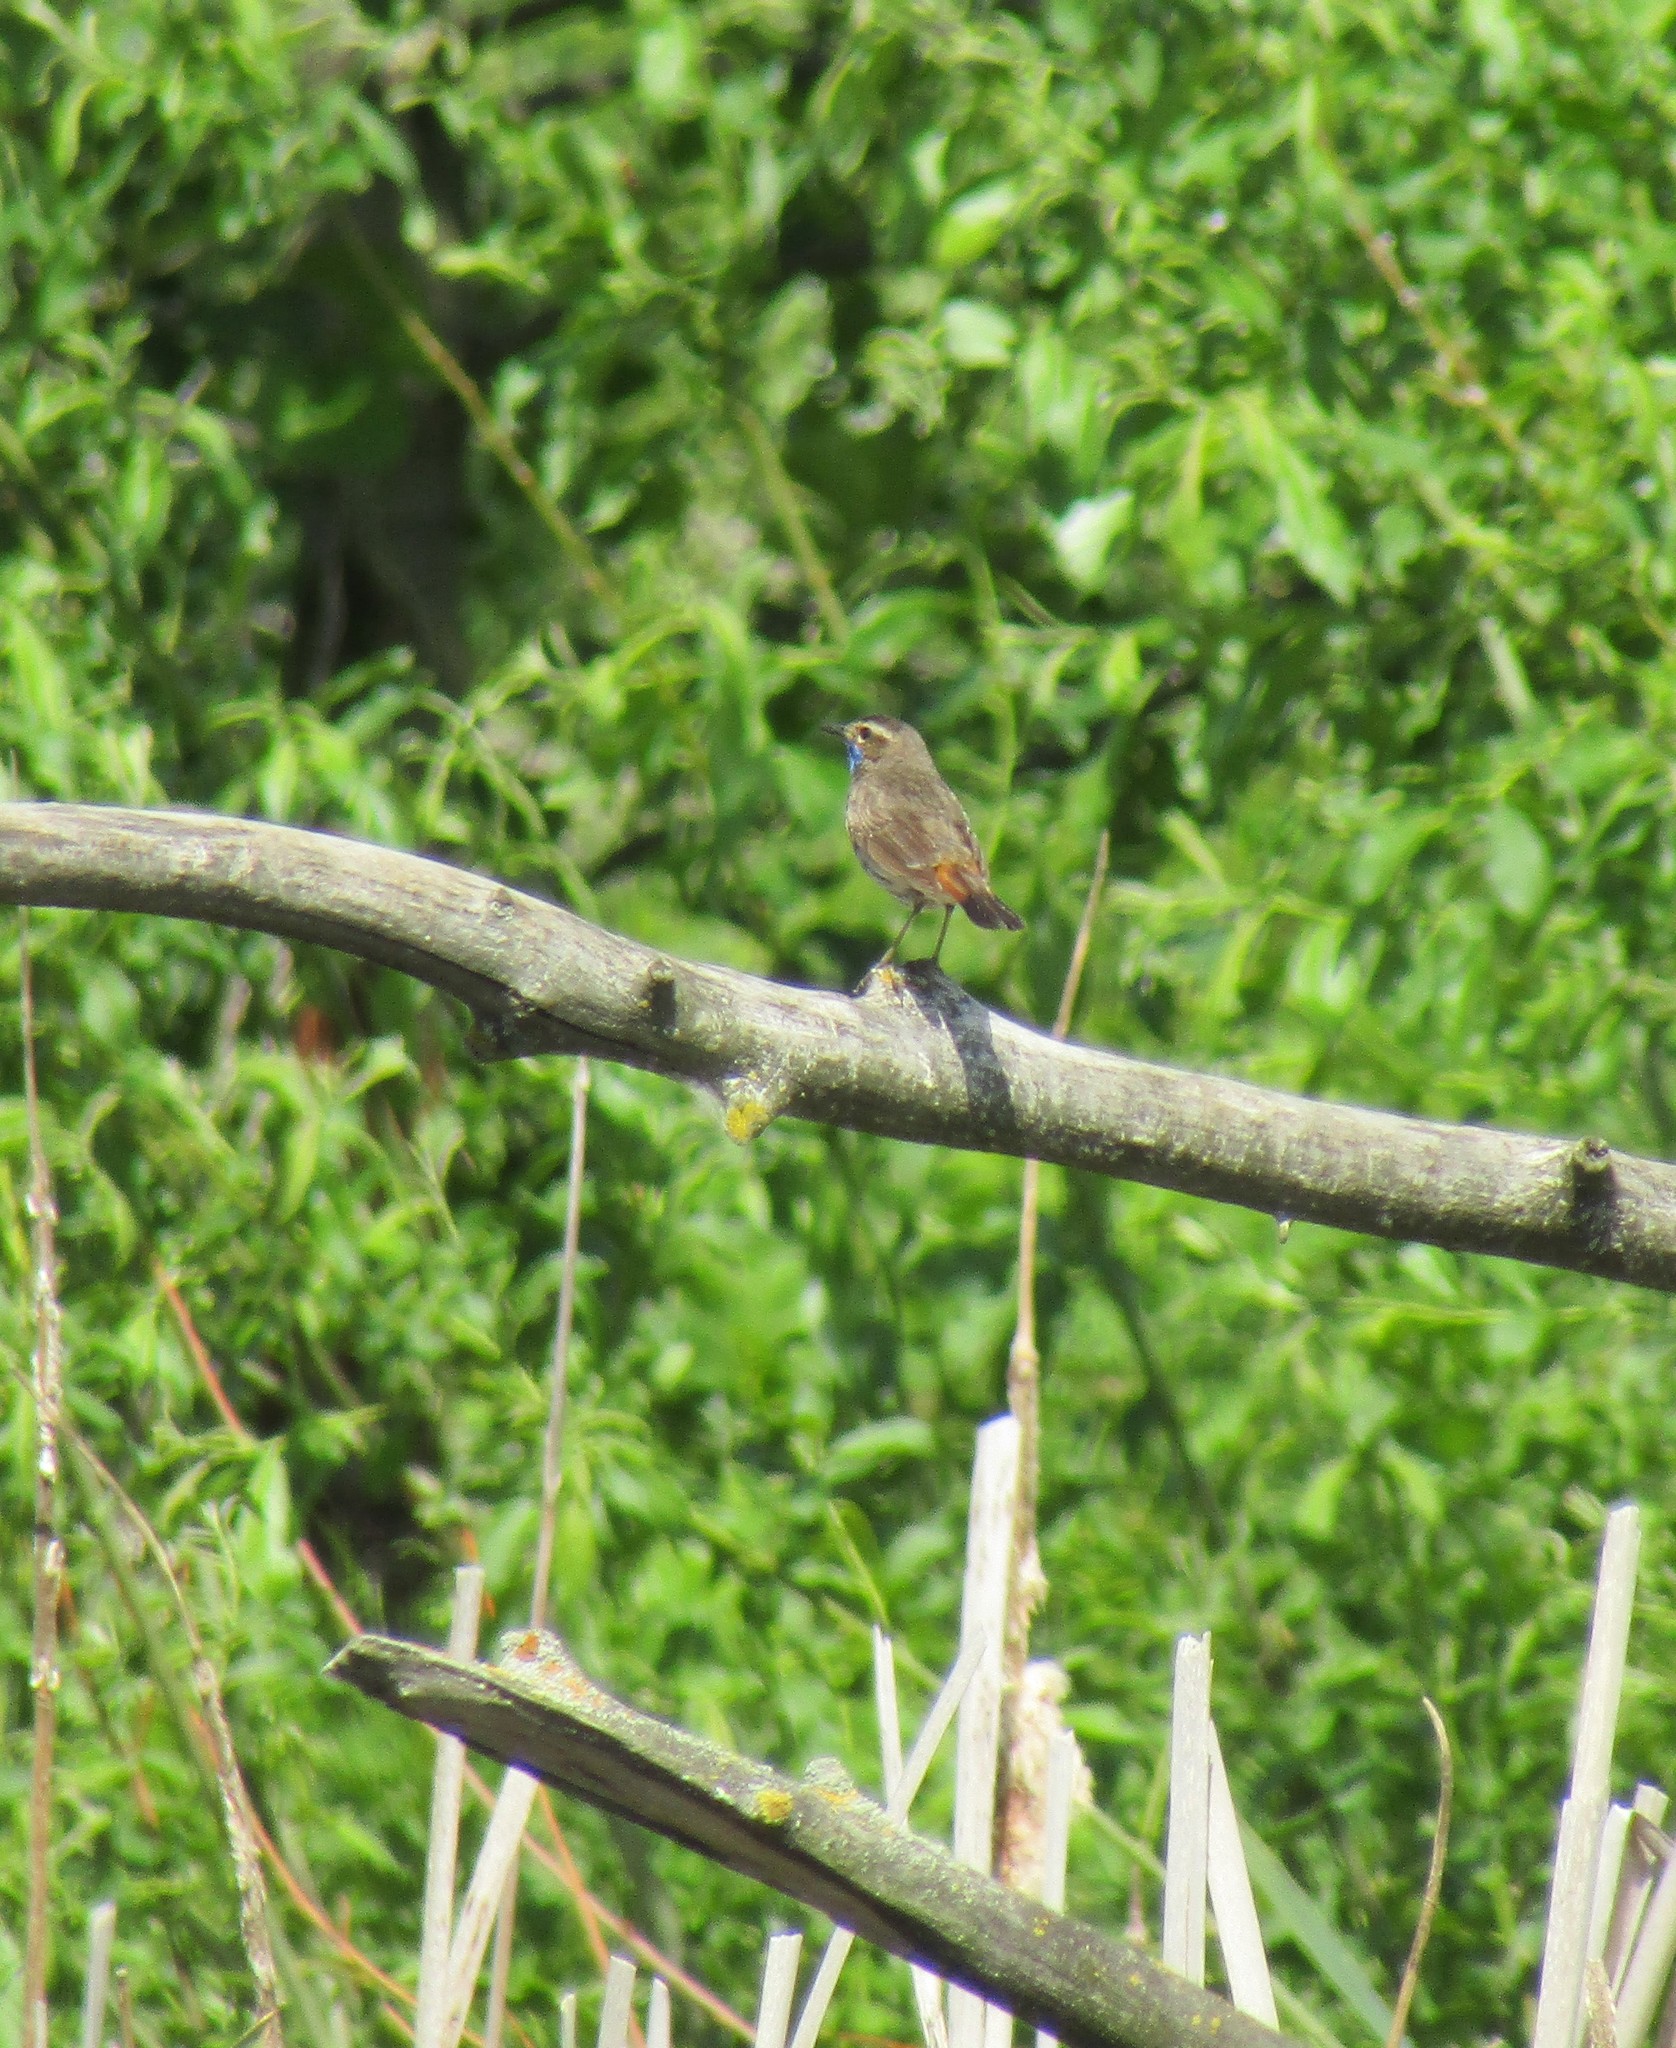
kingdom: Animalia
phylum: Chordata
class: Aves
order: Passeriformes
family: Muscicapidae
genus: Luscinia
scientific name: Luscinia svecica
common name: Bluethroat
